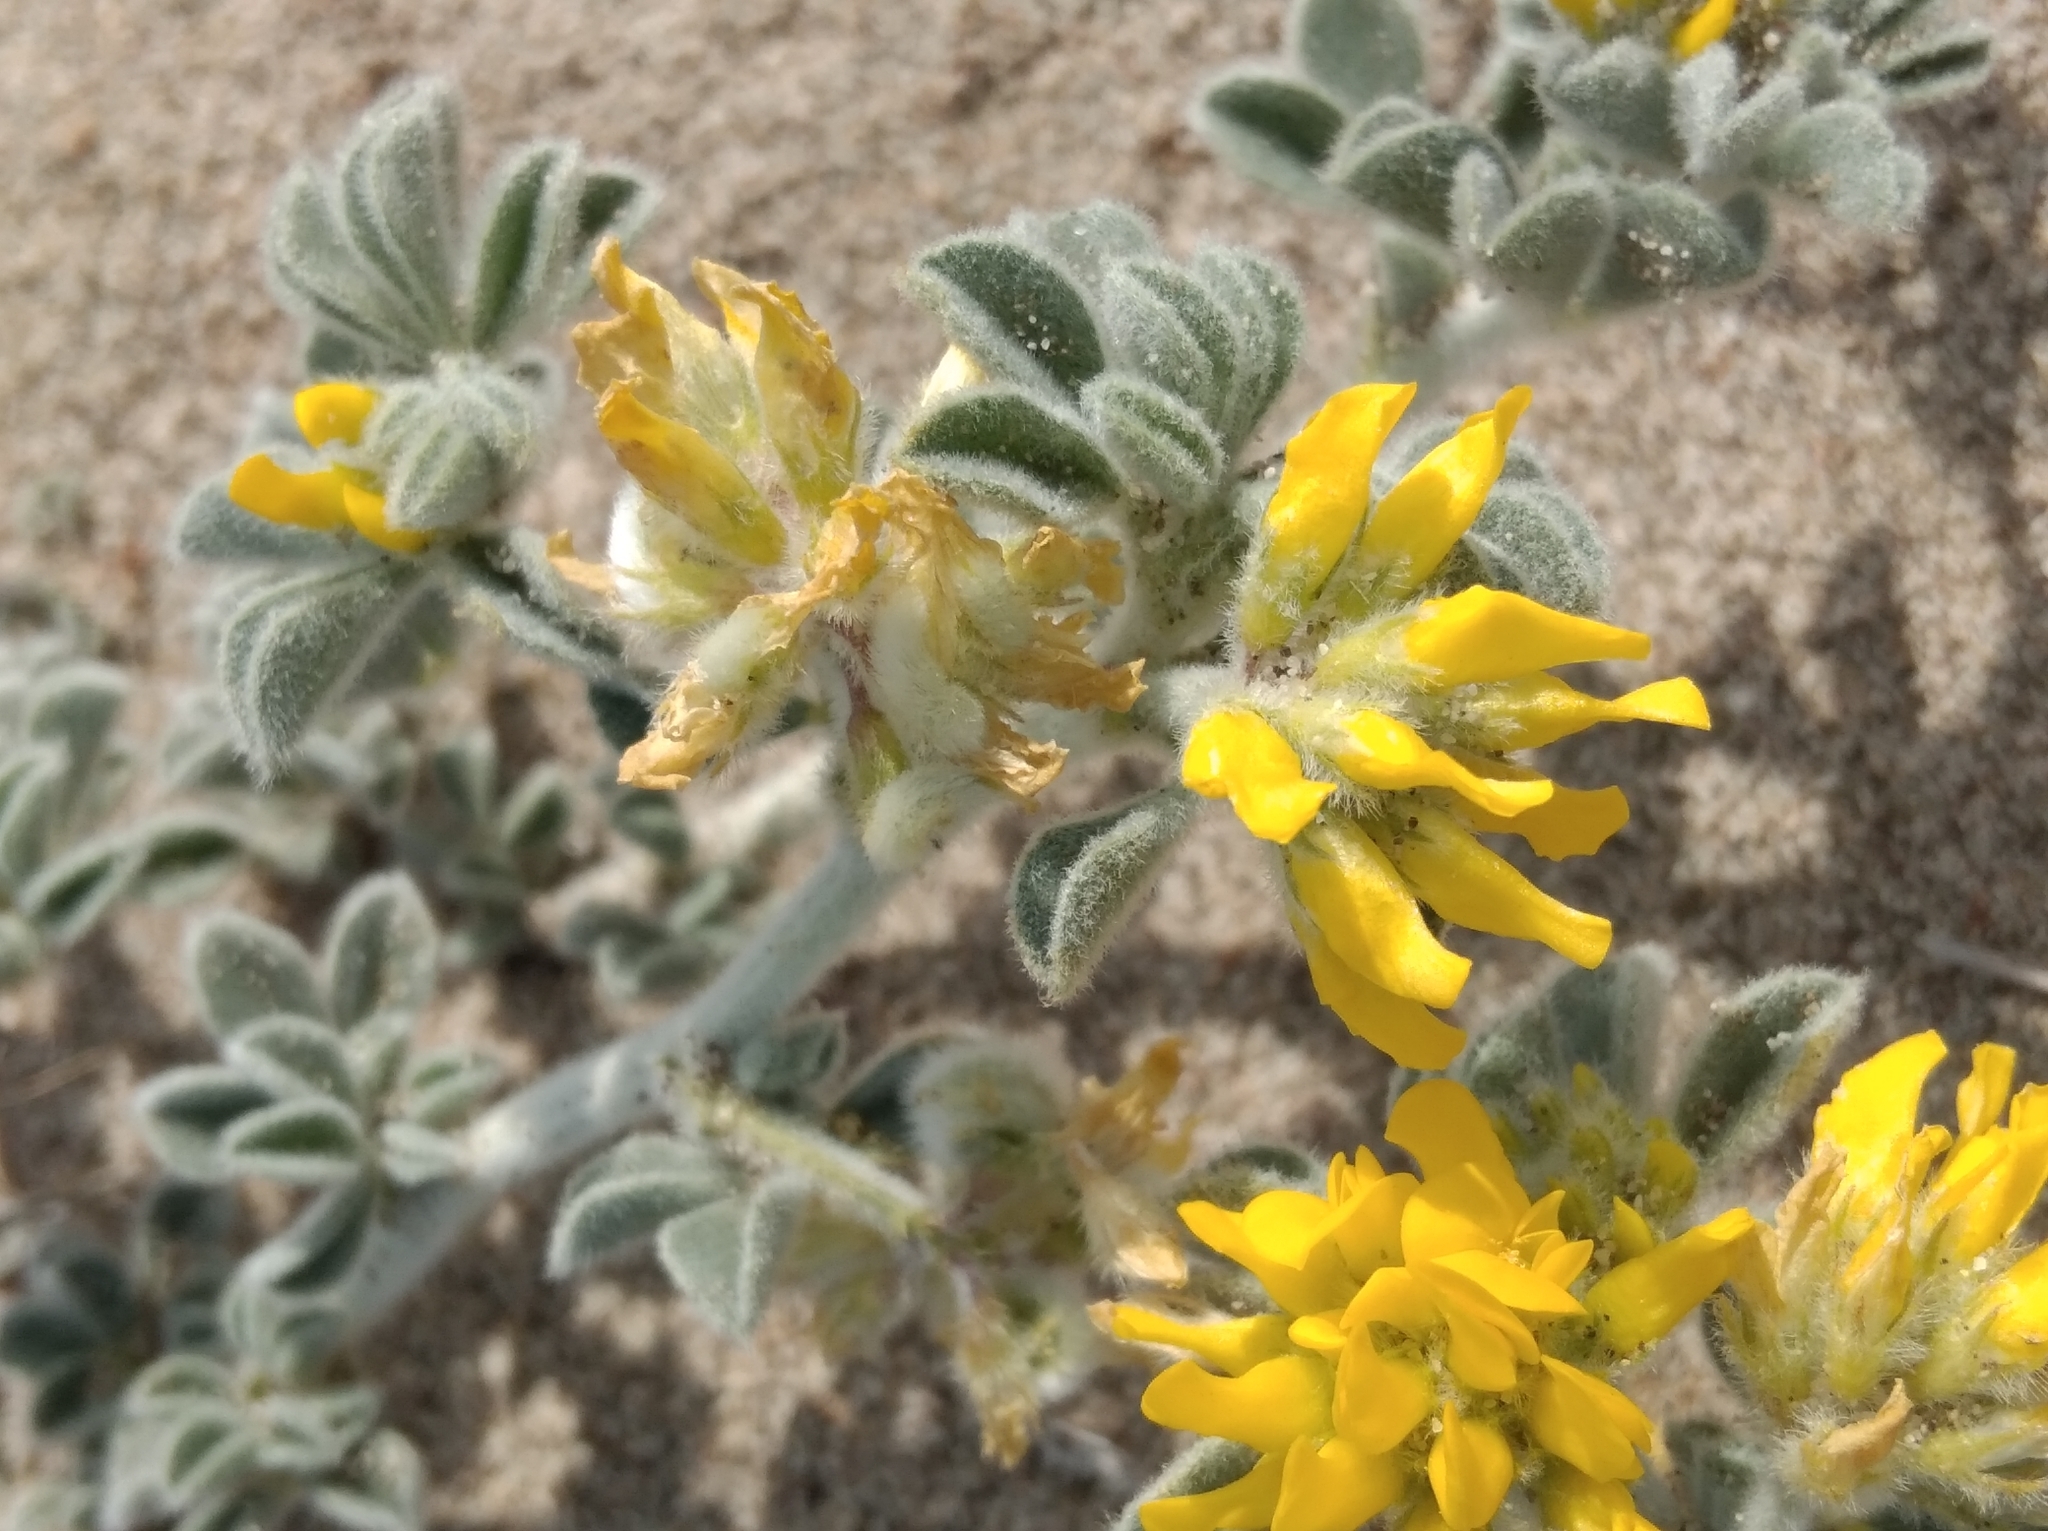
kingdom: Plantae
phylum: Tracheophyta
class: Magnoliopsida
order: Fabales
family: Fabaceae
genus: Medicago
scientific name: Medicago marina
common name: Sea medick
